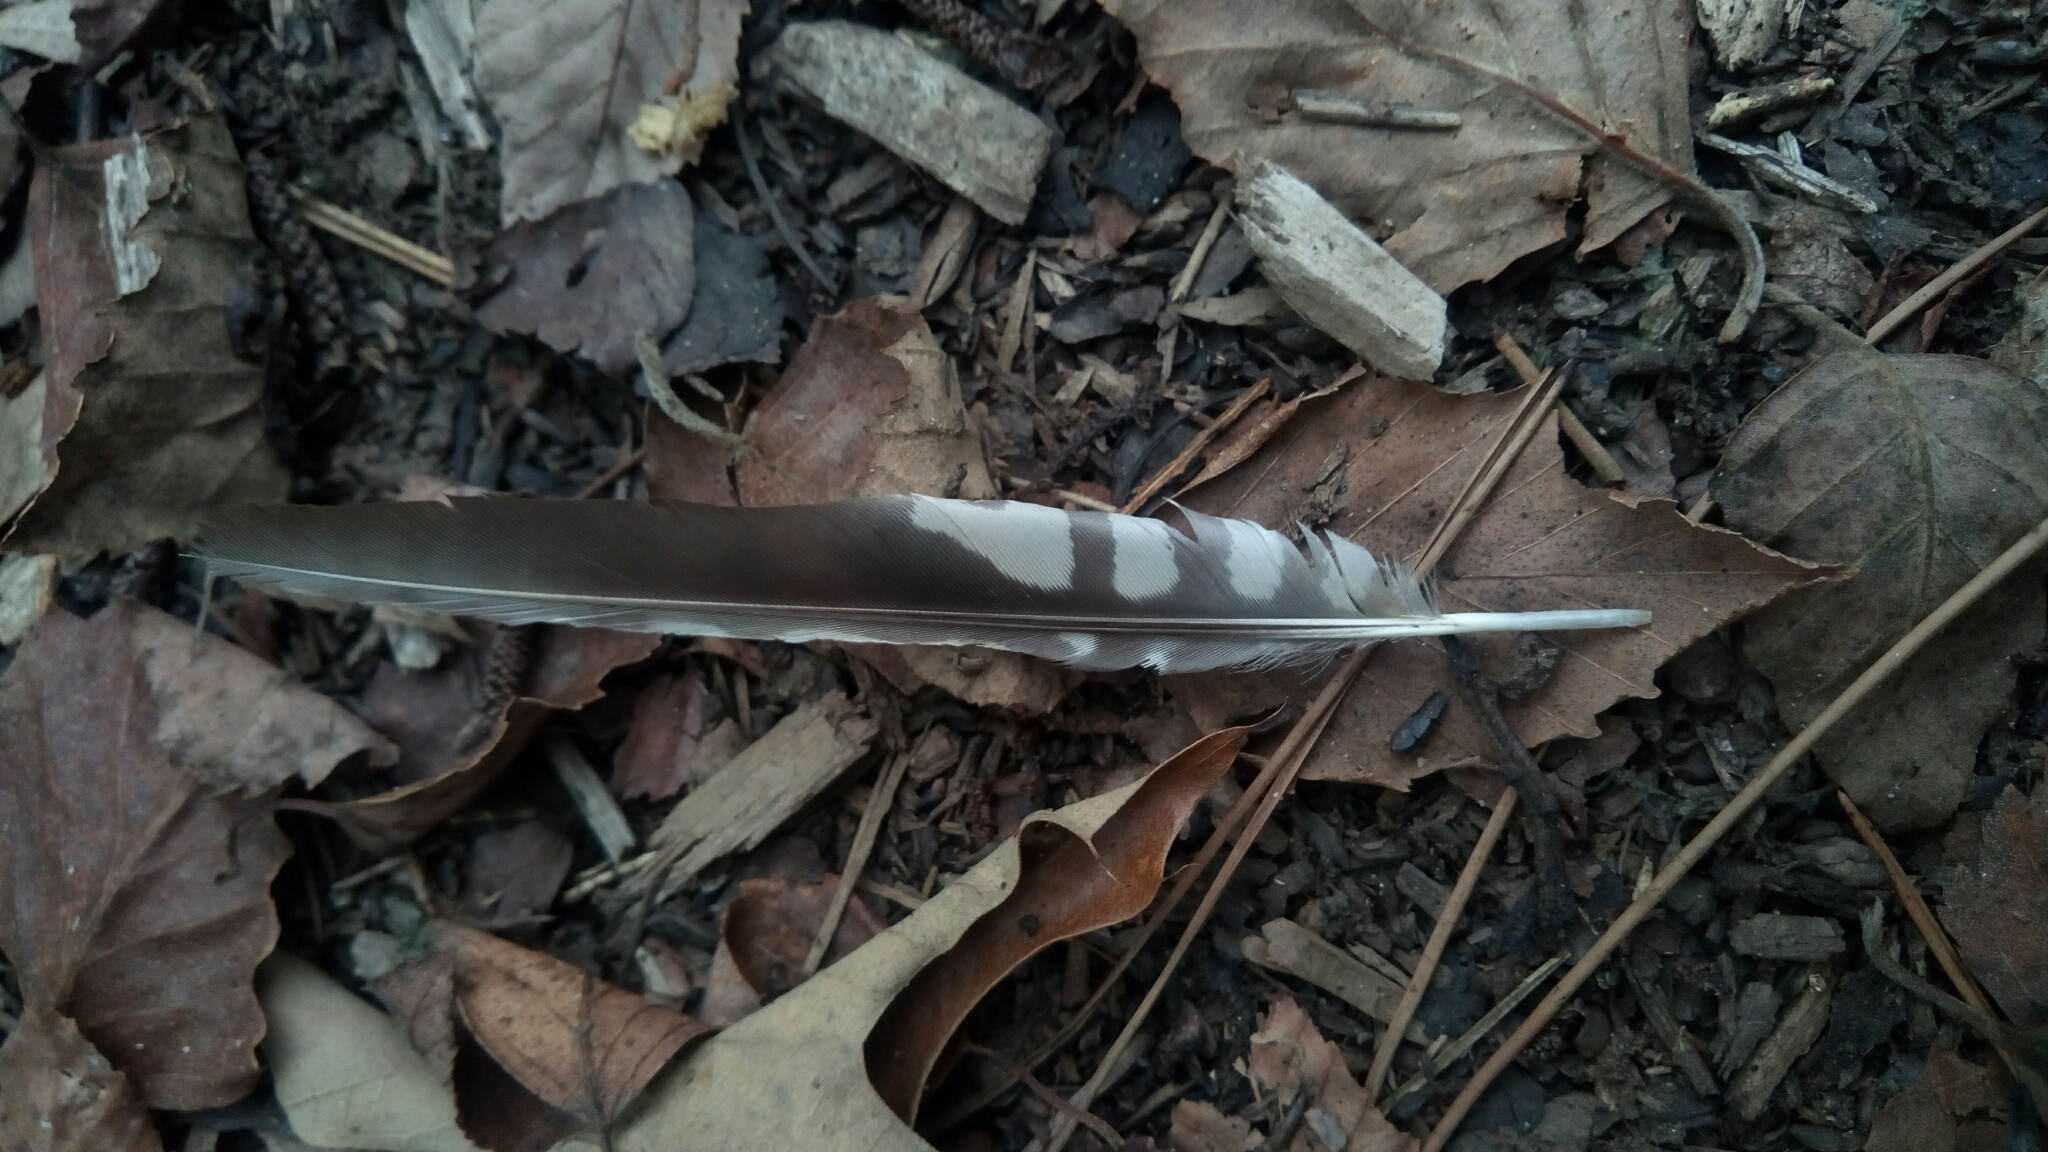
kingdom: Animalia
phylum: Chordata
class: Aves
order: Piciformes
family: Picidae
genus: Melanerpes
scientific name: Melanerpes carolinus
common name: Red-bellied woodpecker
